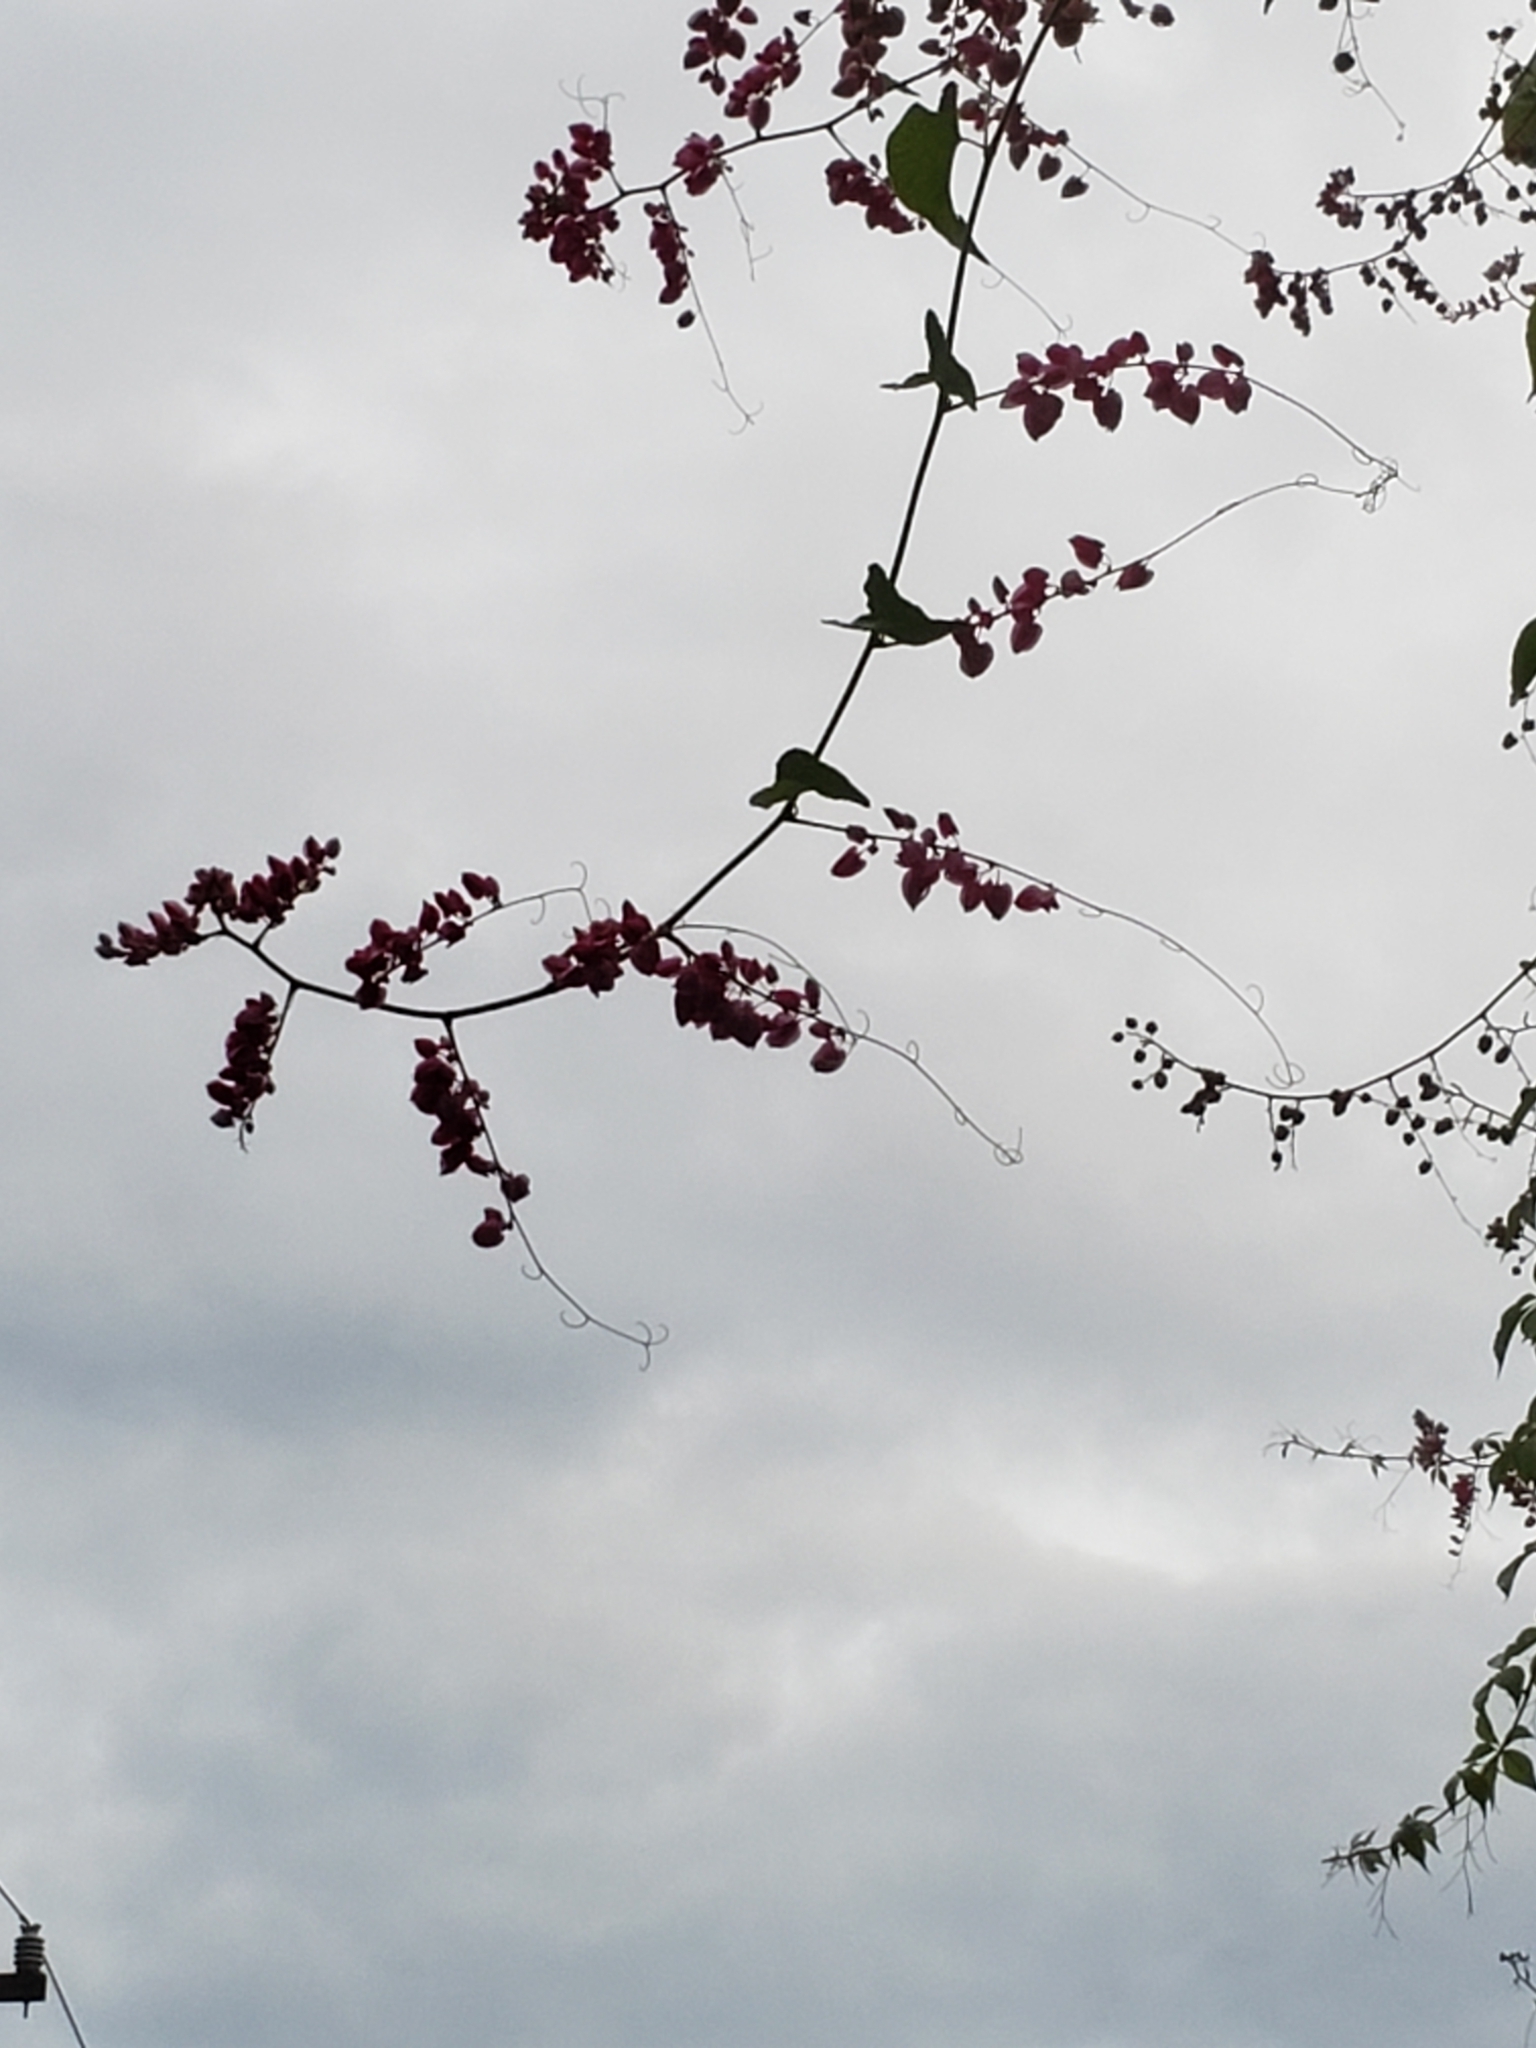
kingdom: Plantae
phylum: Tracheophyta
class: Magnoliopsida
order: Caryophyllales
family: Polygonaceae
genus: Antigonon
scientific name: Antigonon leptopus
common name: Coral vine
